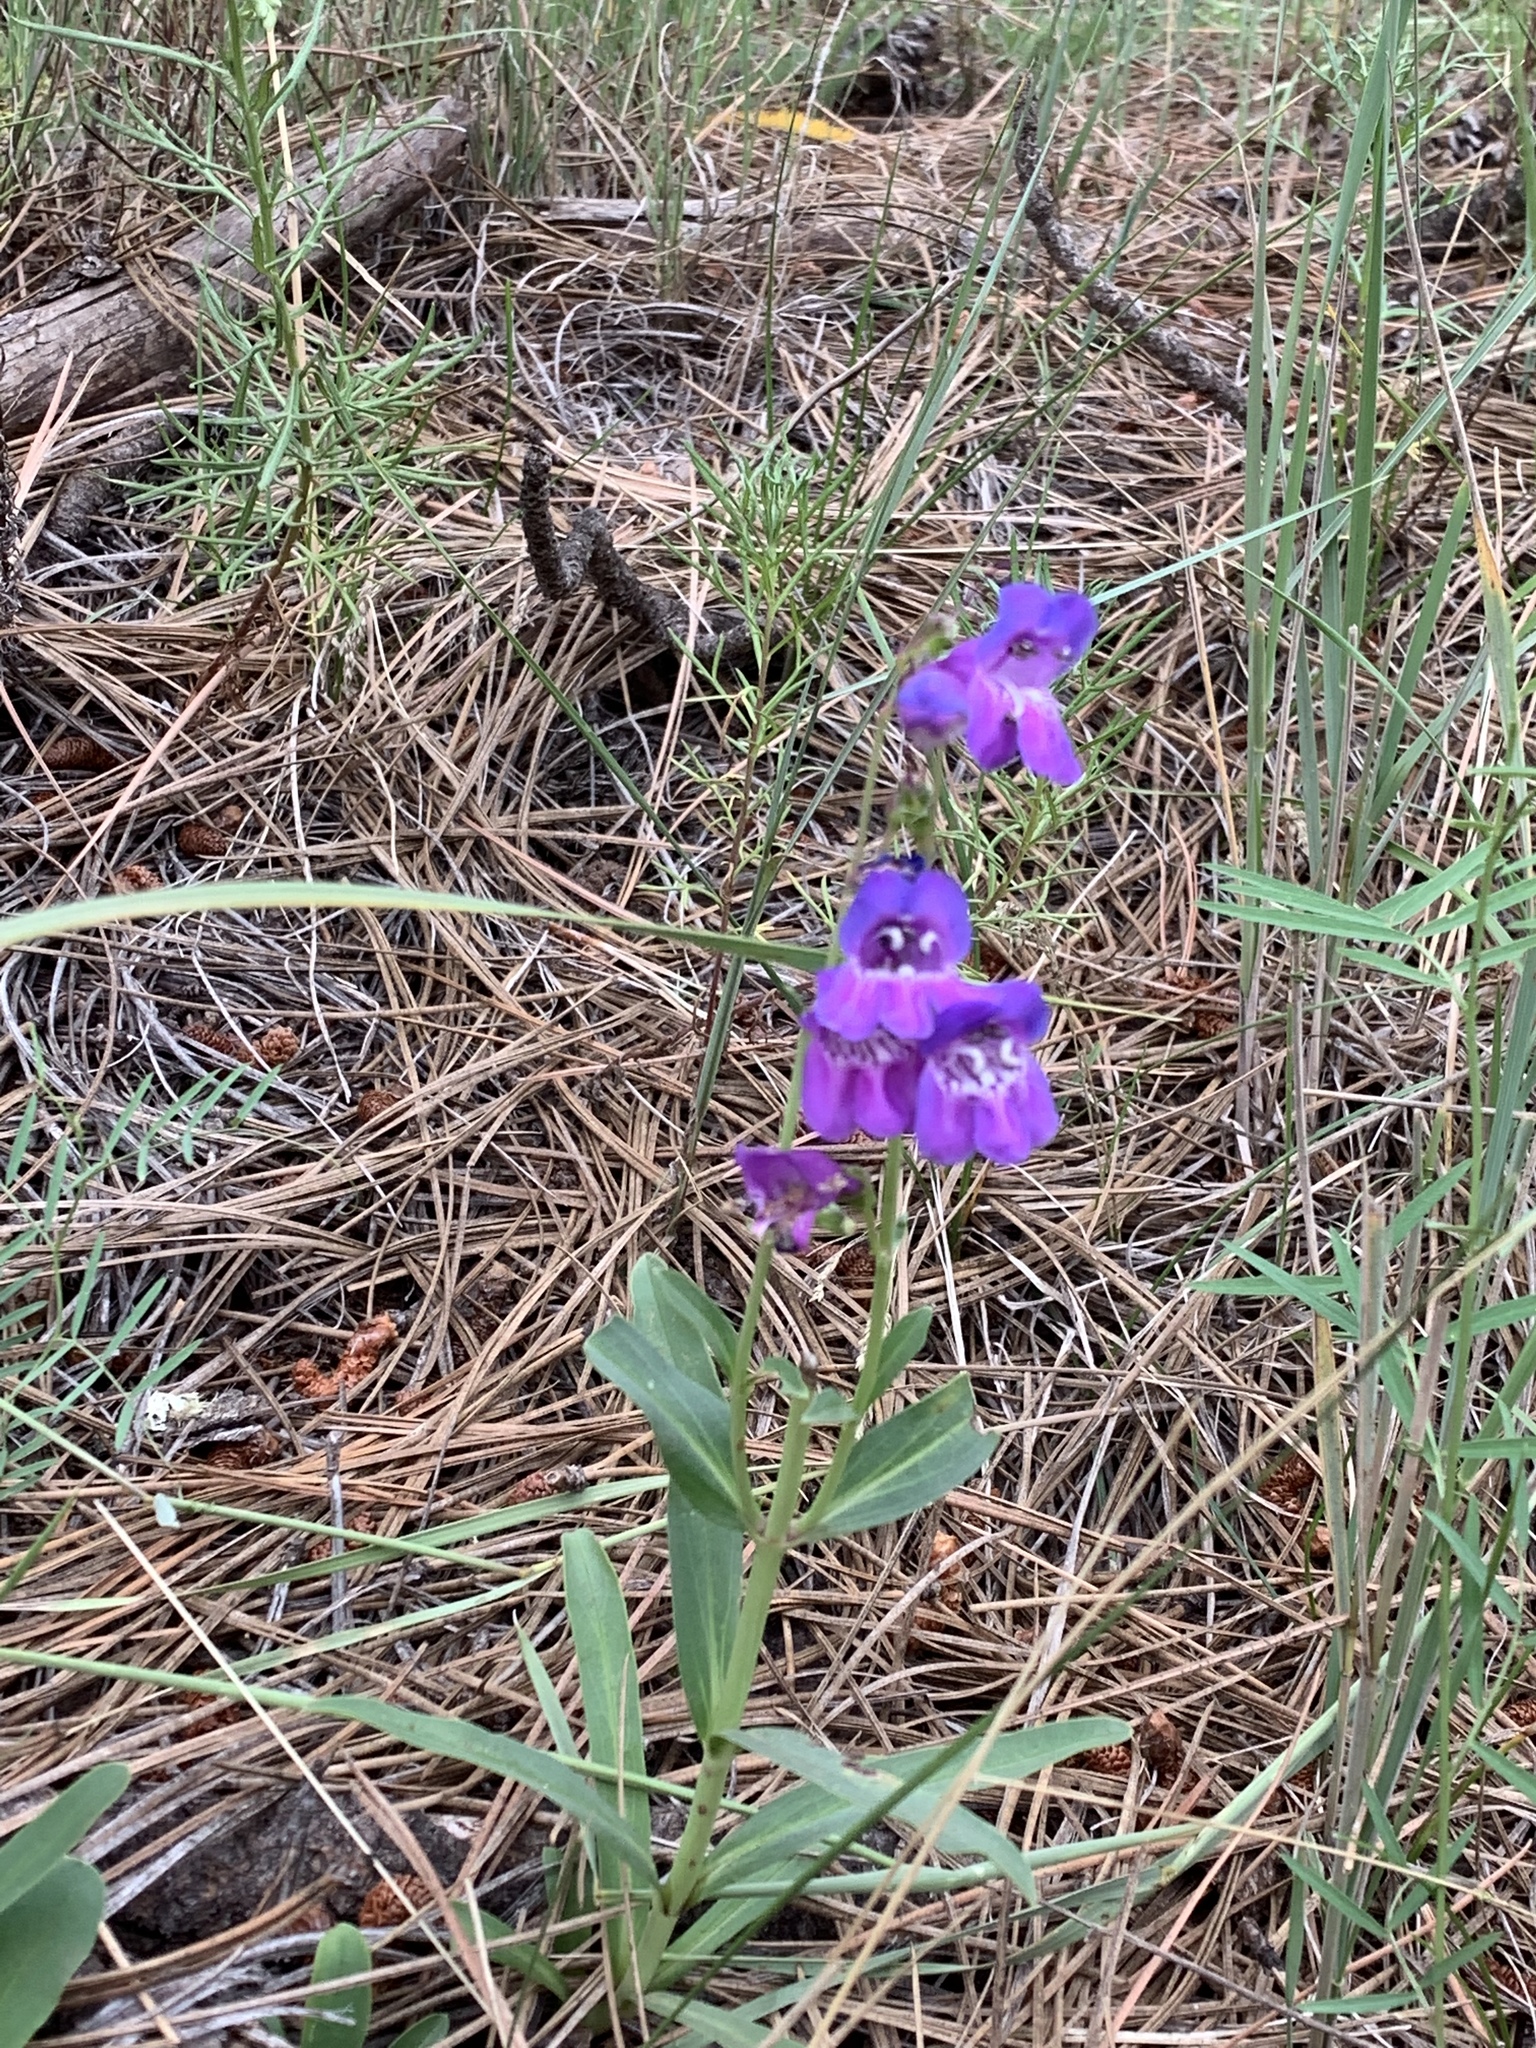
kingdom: Plantae
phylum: Tracheophyta
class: Magnoliopsida
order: Lamiales
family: Plantaginaceae
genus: Penstemon
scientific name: Penstemon neomexicanus
